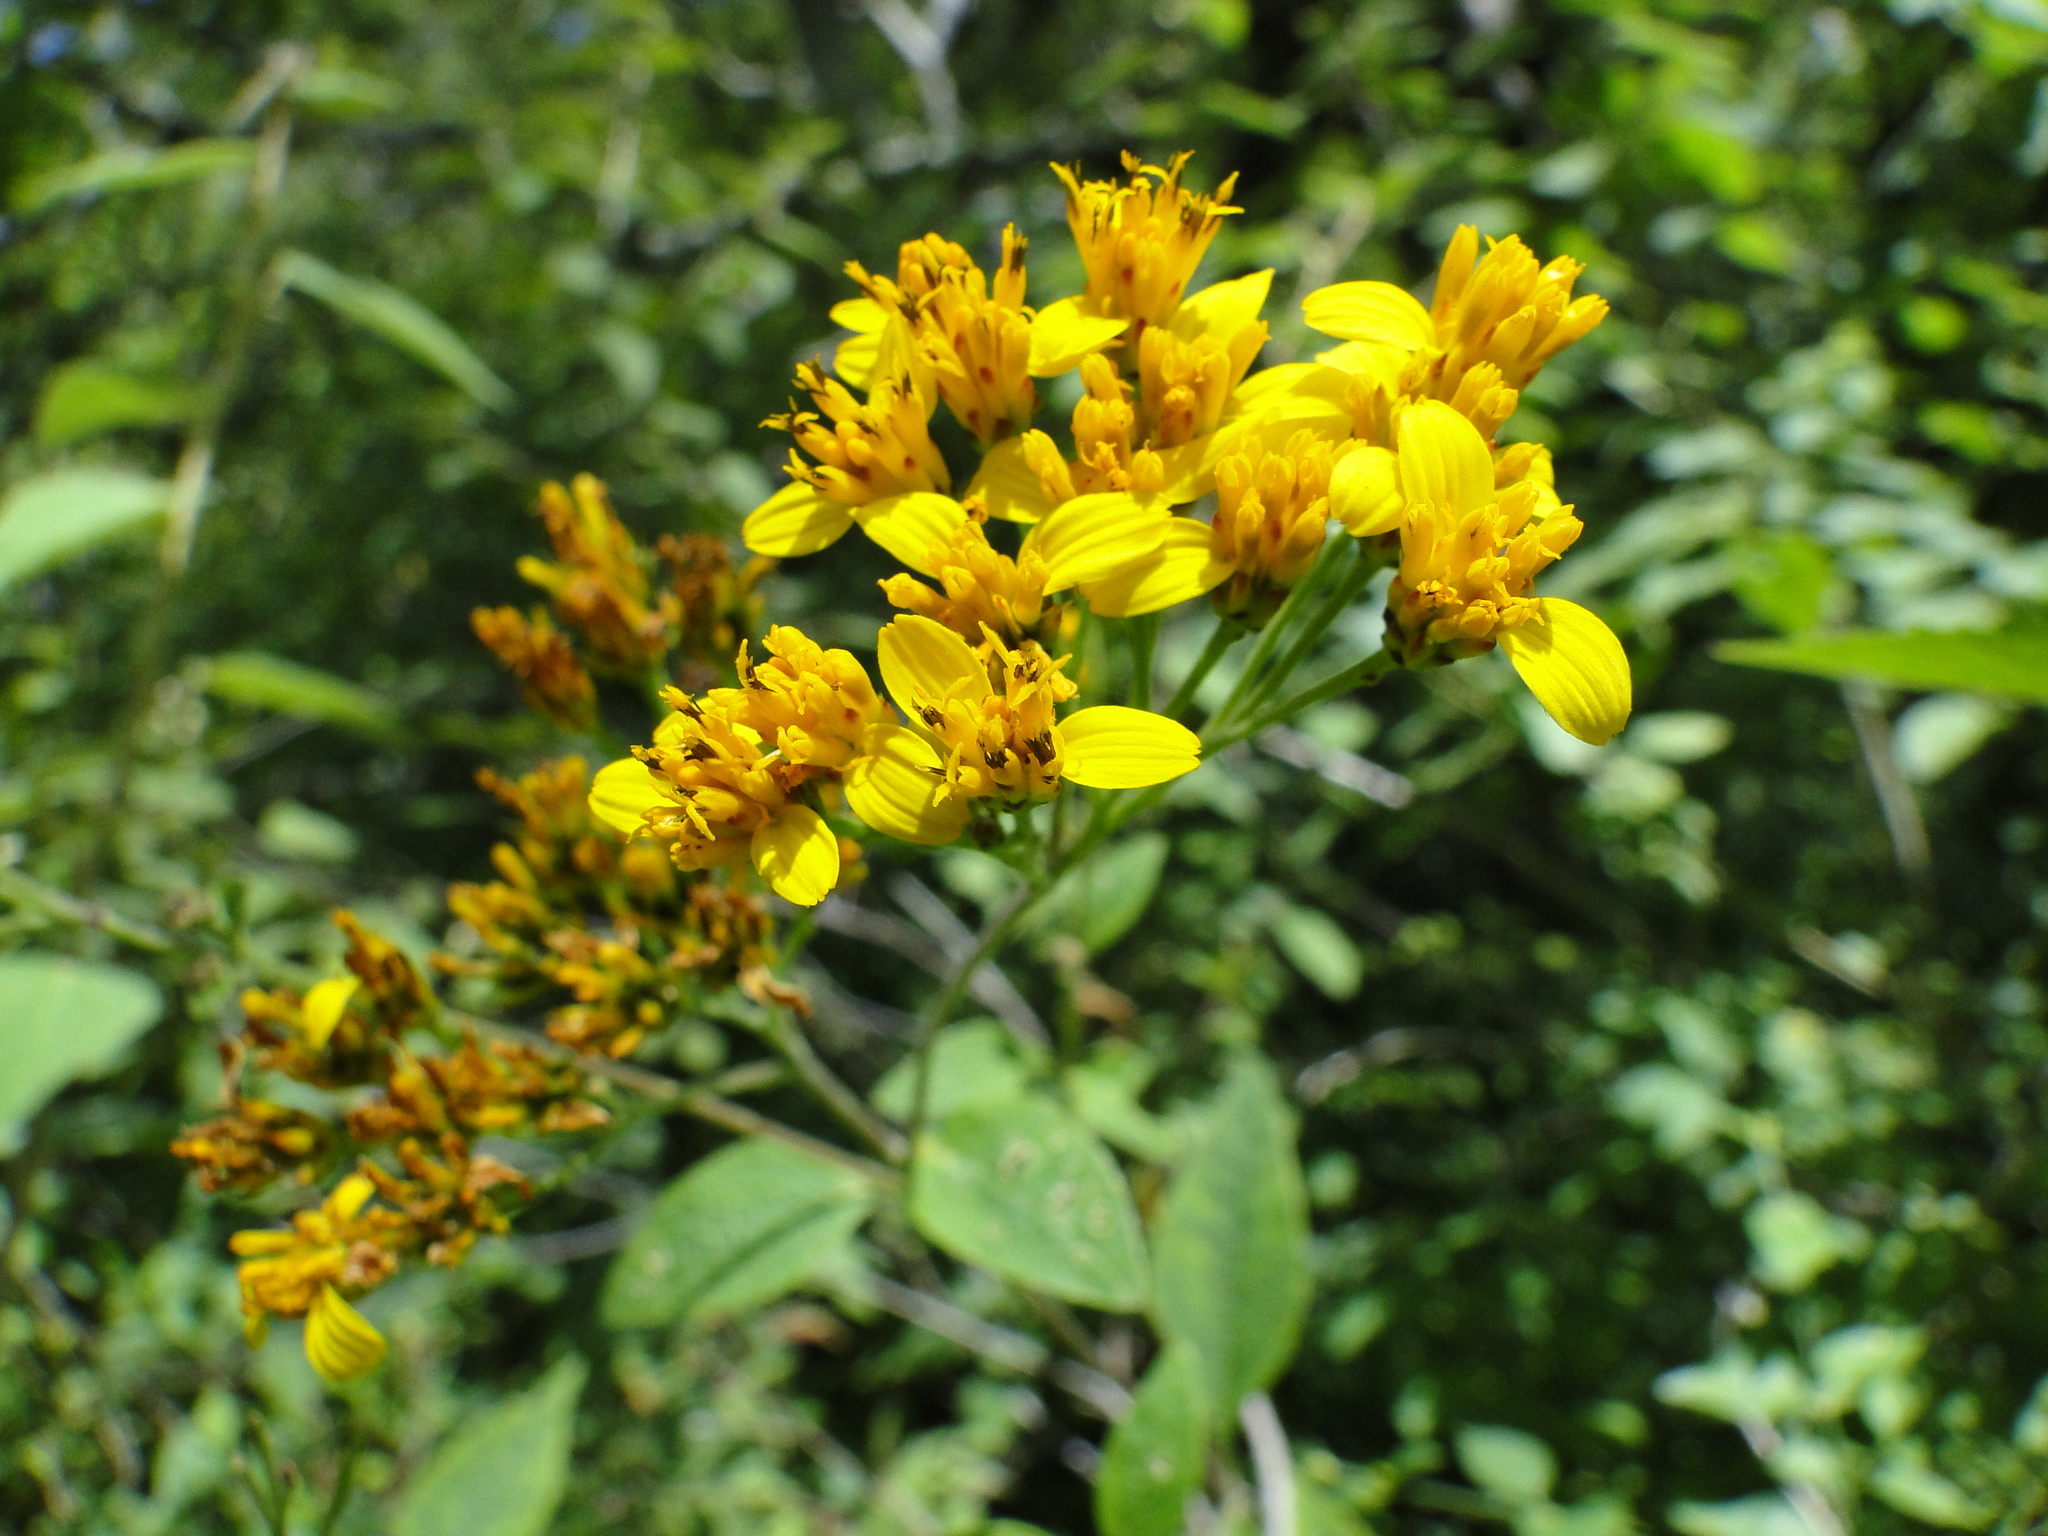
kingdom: Plantae
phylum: Tracheophyta
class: Magnoliopsida
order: Asterales
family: Asteraceae
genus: Verbesina
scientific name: Verbesina oligantha
